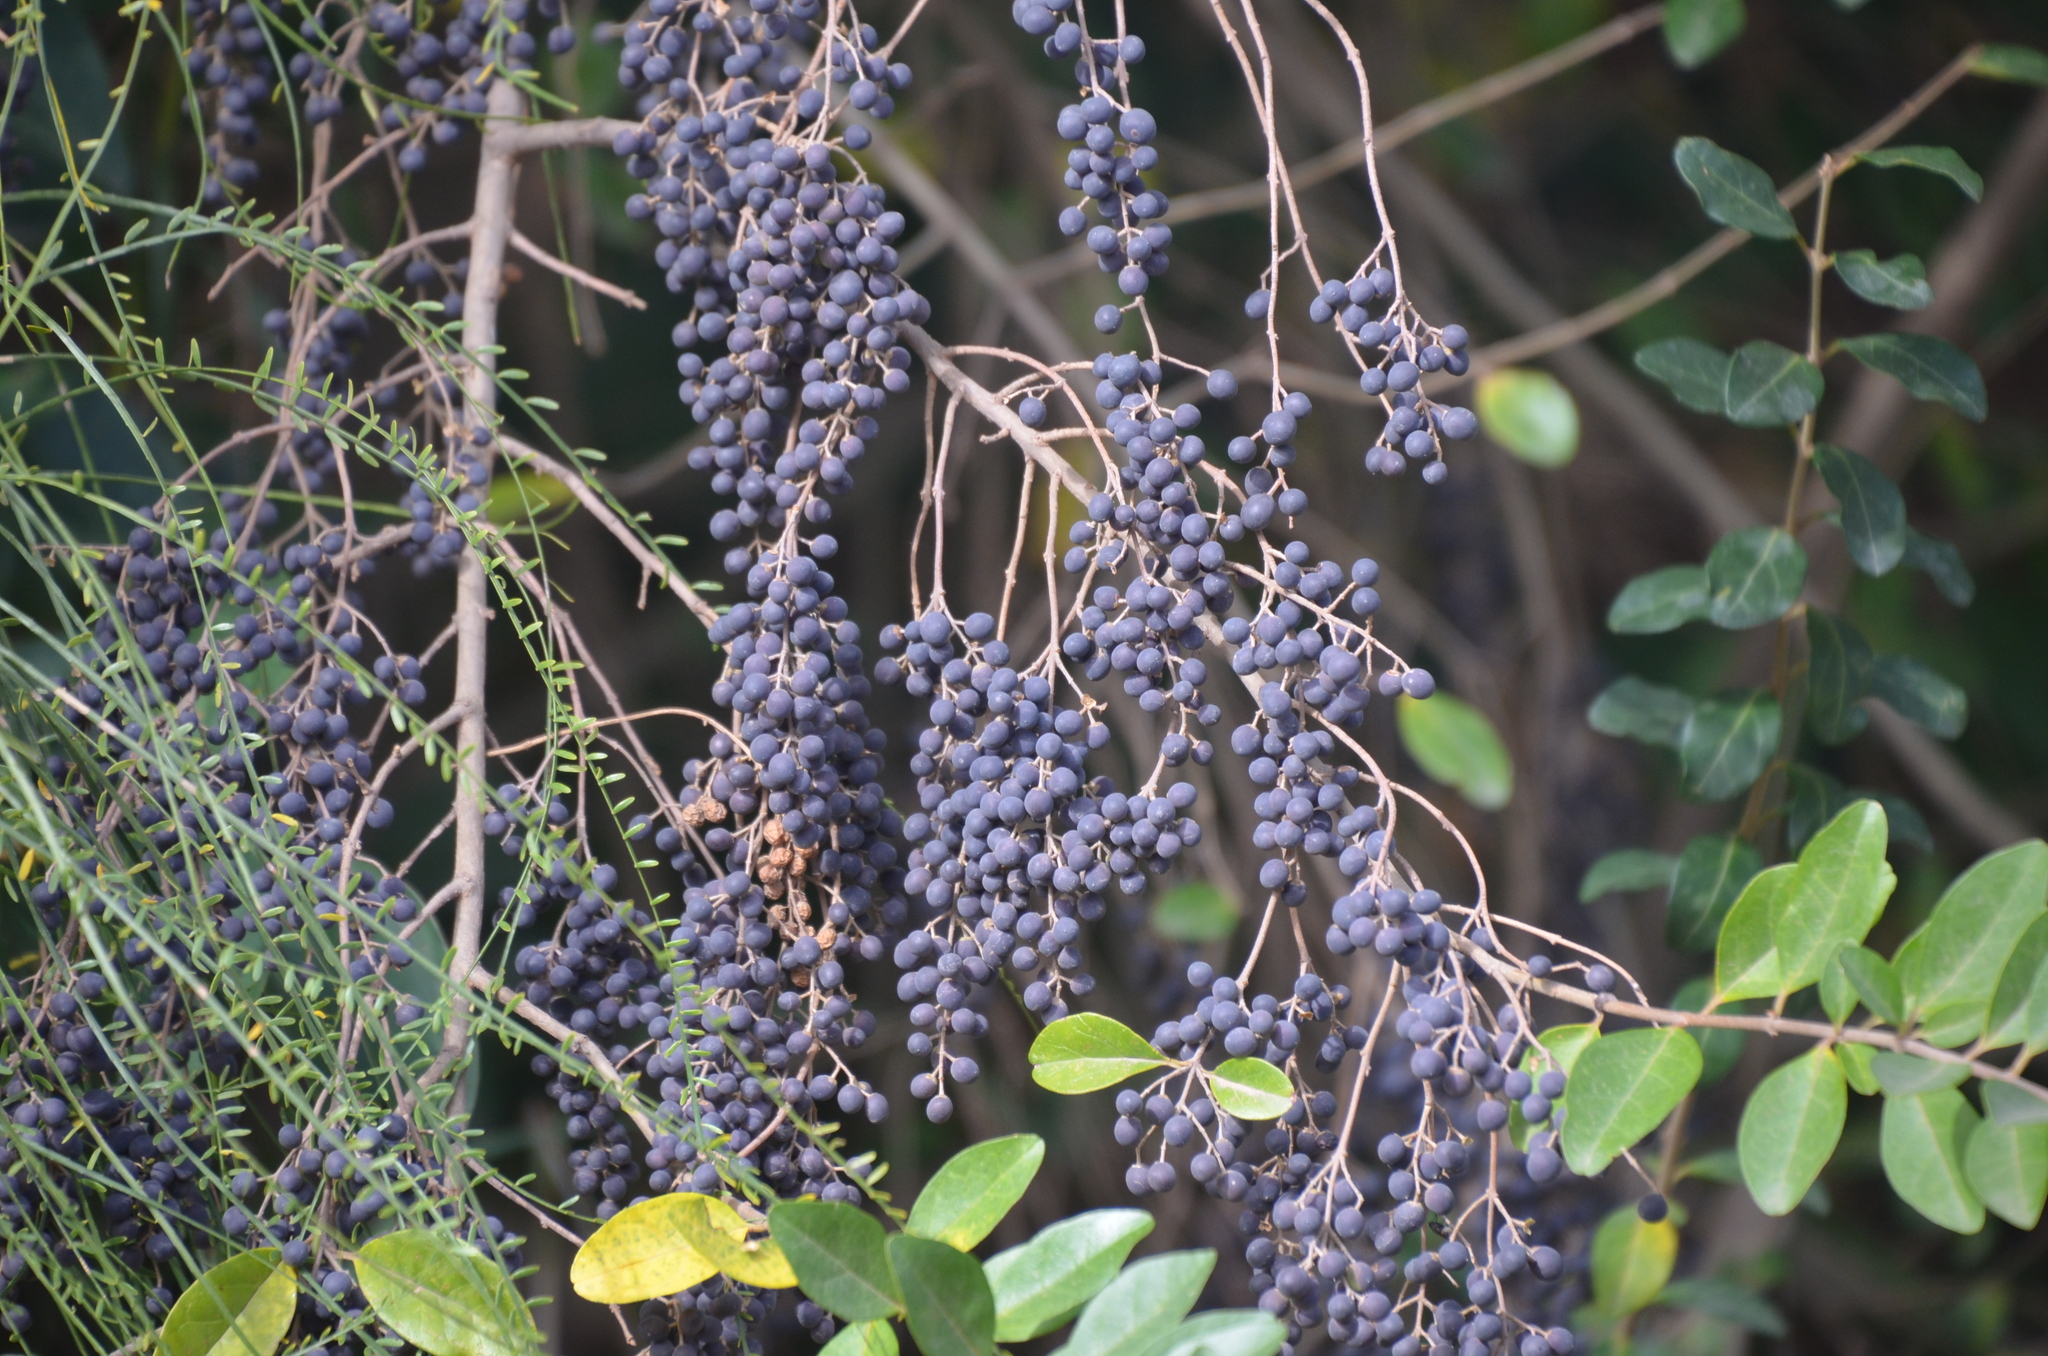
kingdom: Plantae
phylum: Tracheophyta
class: Magnoliopsida
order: Lamiales
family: Oleaceae
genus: Ligustrum
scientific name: Ligustrum lucidum
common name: Glossy privet
